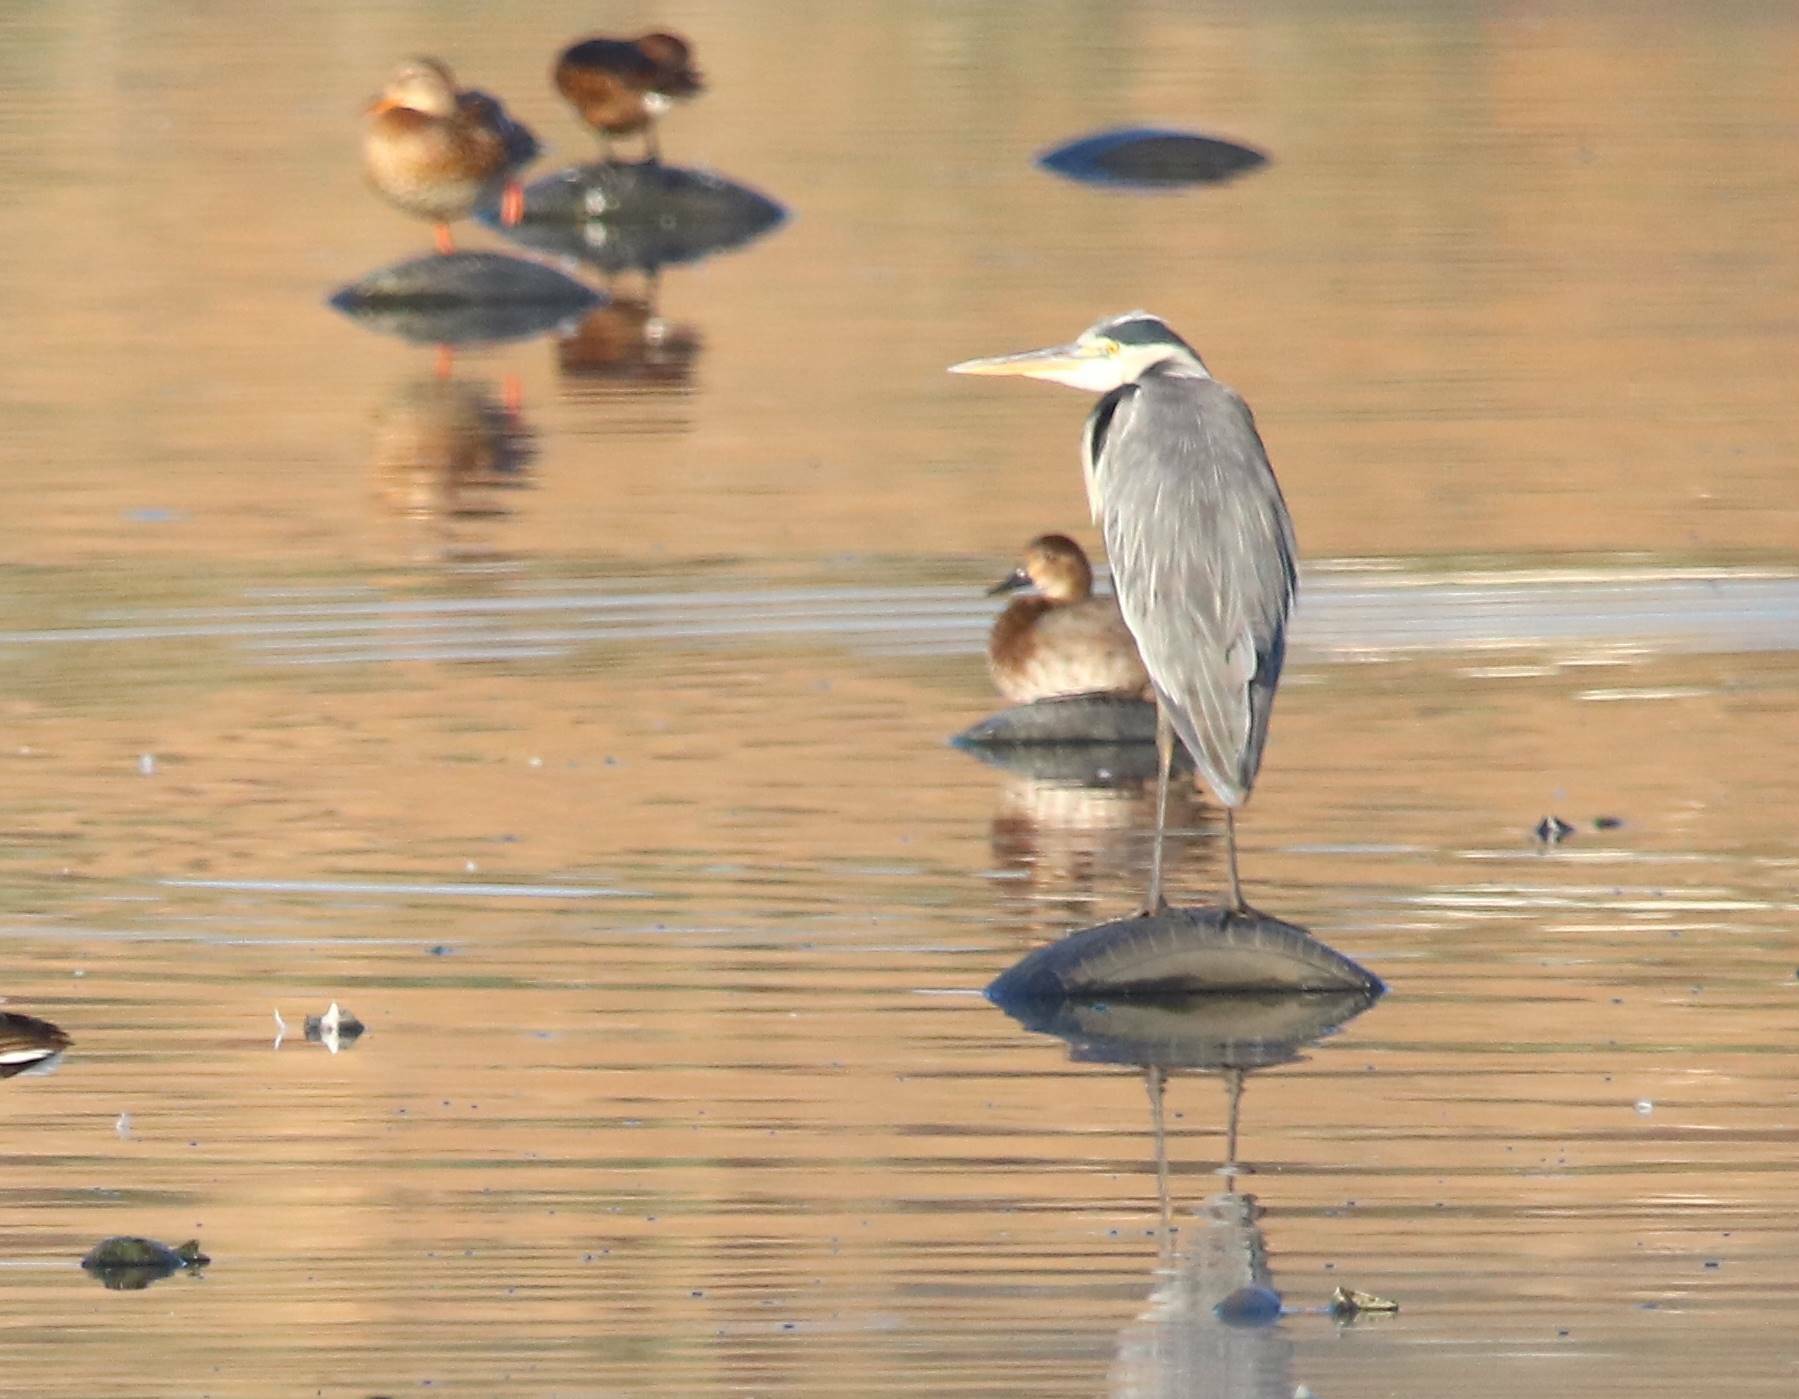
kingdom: Animalia
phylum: Chordata
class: Aves
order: Pelecaniformes
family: Ardeidae
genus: Ardea
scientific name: Ardea cinerea
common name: Grey heron
